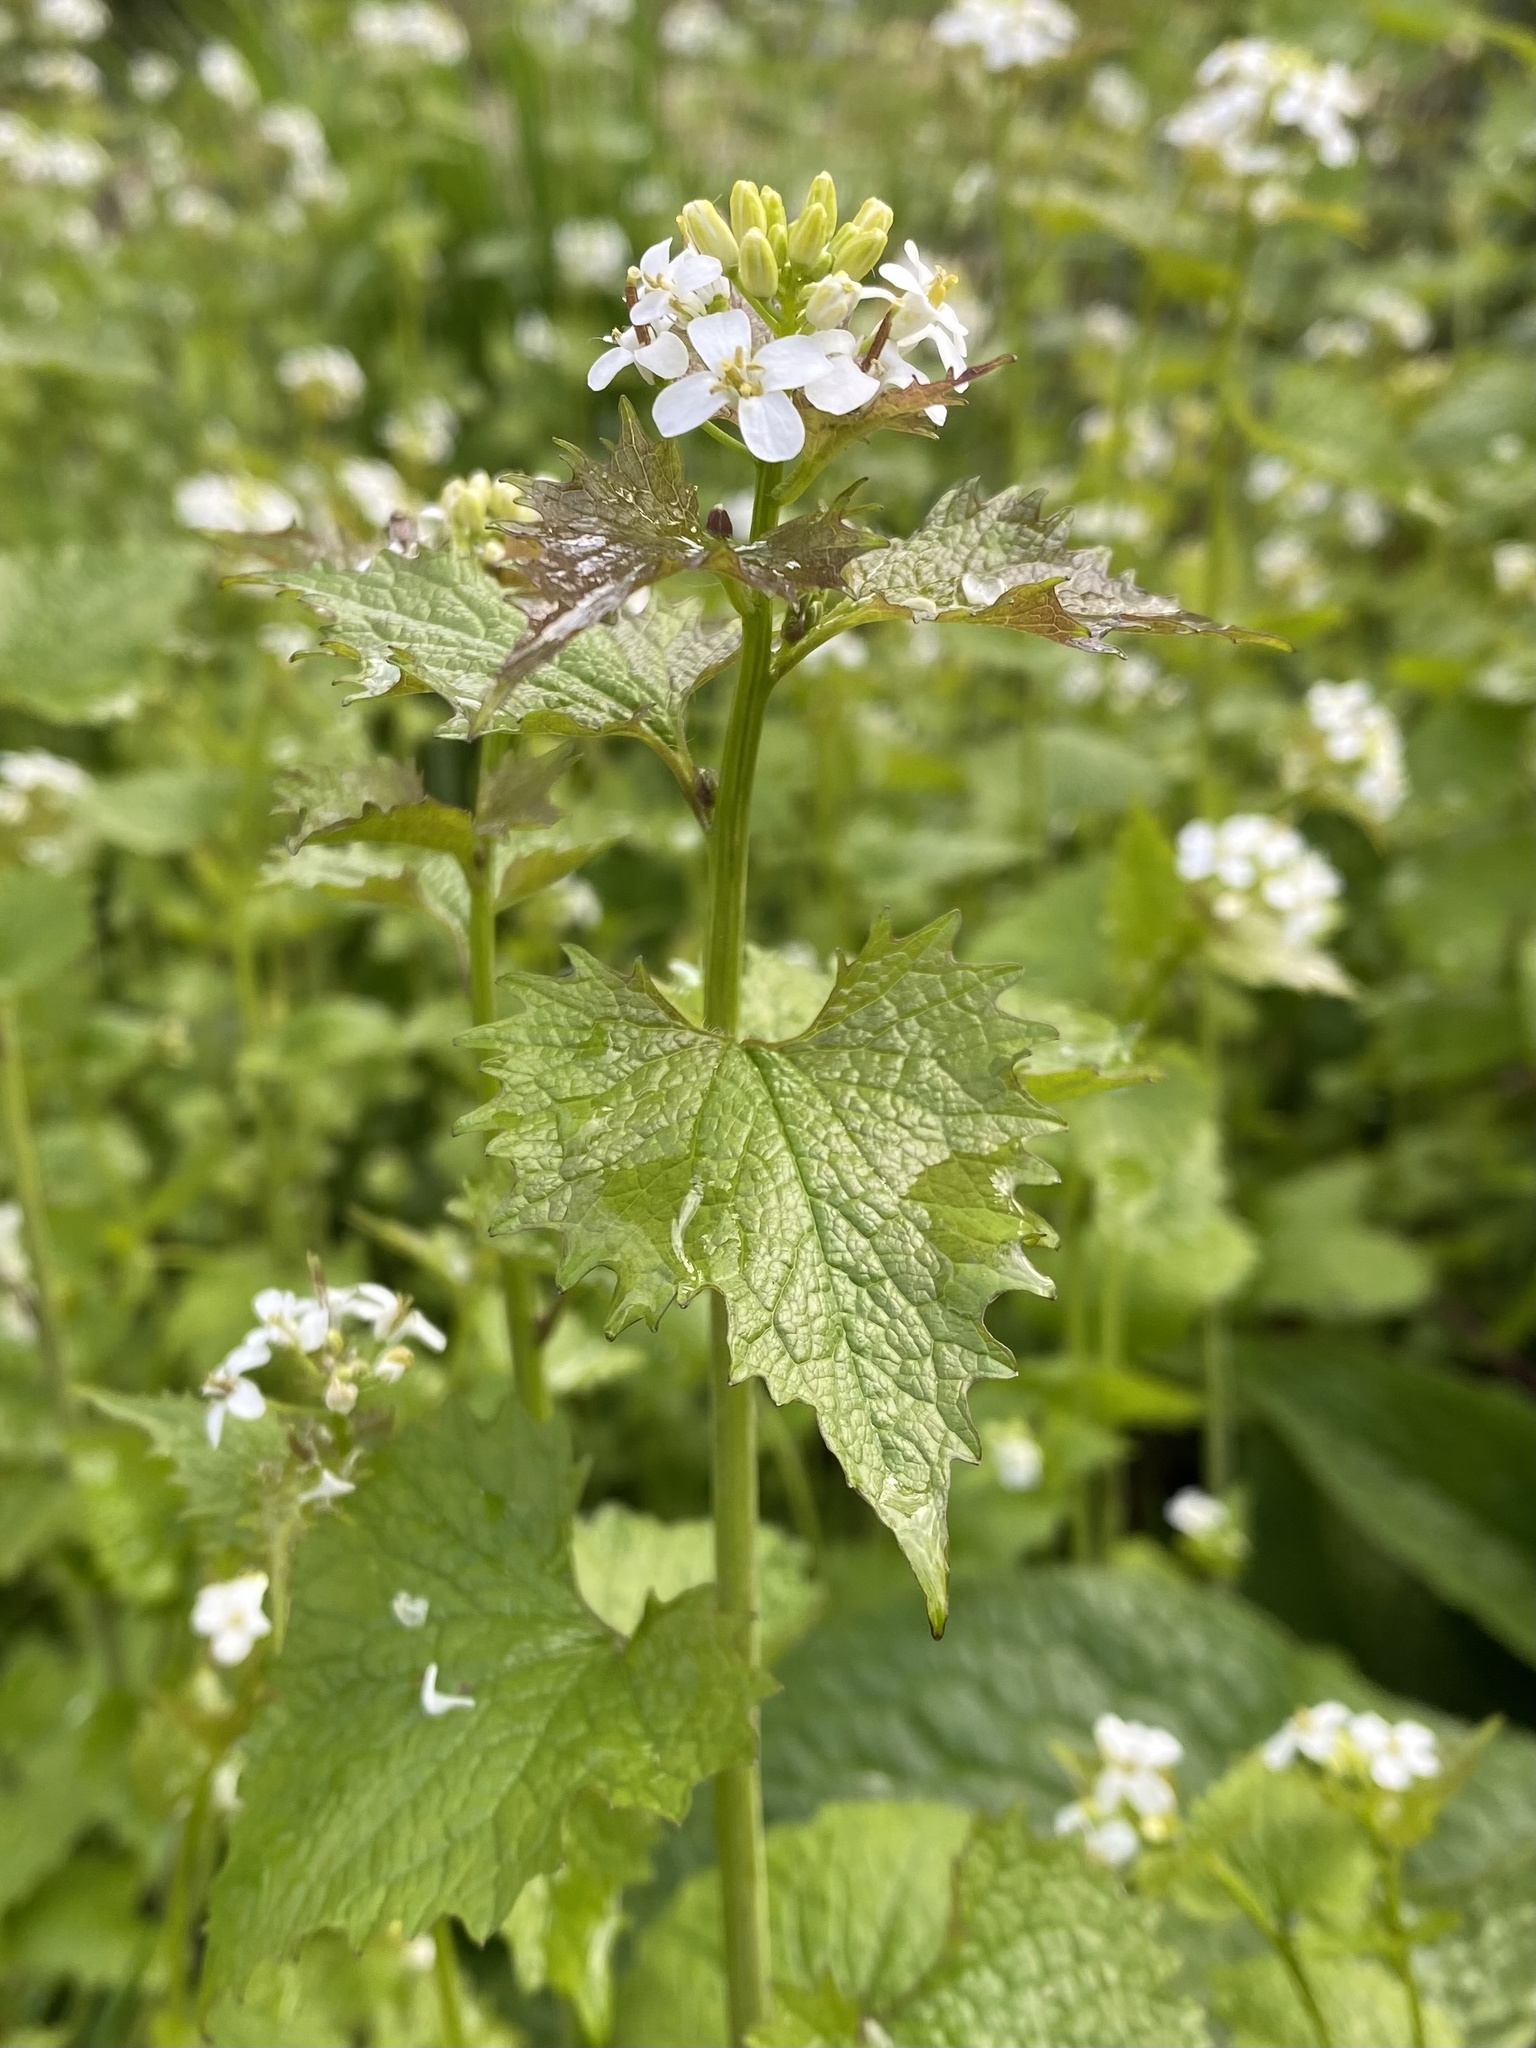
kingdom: Plantae
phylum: Tracheophyta
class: Magnoliopsida
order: Brassicales
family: Brassicaceae
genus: Alliaria
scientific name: Alliaria petiolata
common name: Garlic mustard
